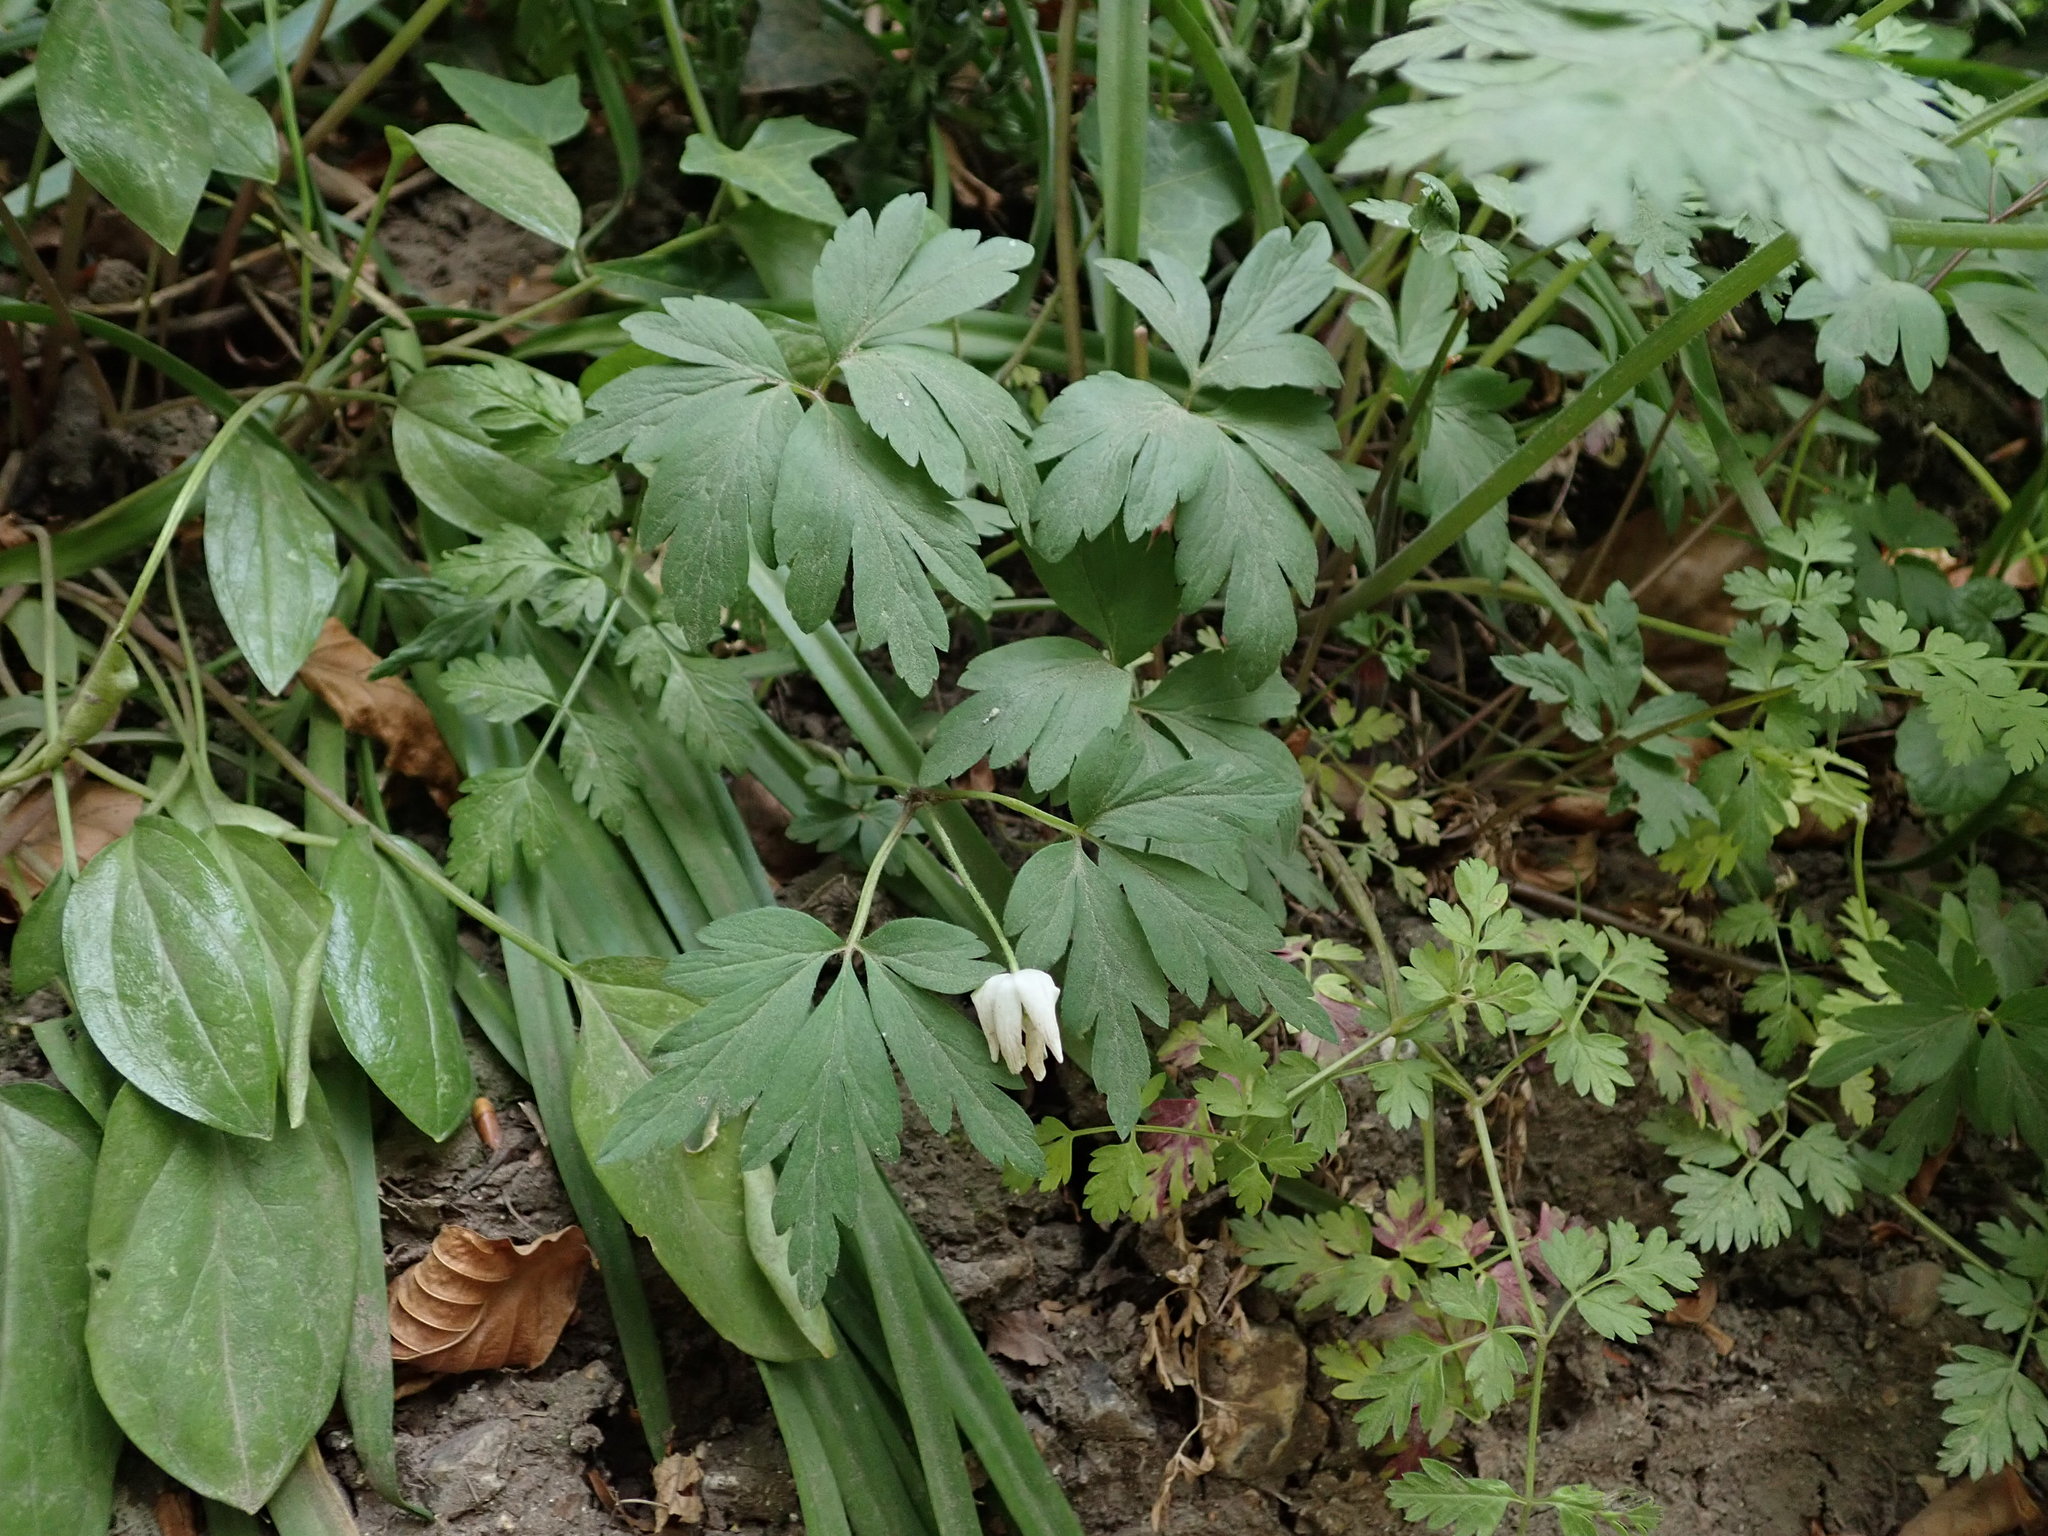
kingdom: Plantae
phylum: Tracheophyta
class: Magnoliopsida
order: Ranunculales
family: Ranunculaceae
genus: Anemone
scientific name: Anemone nemorosa
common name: Wood anemone
